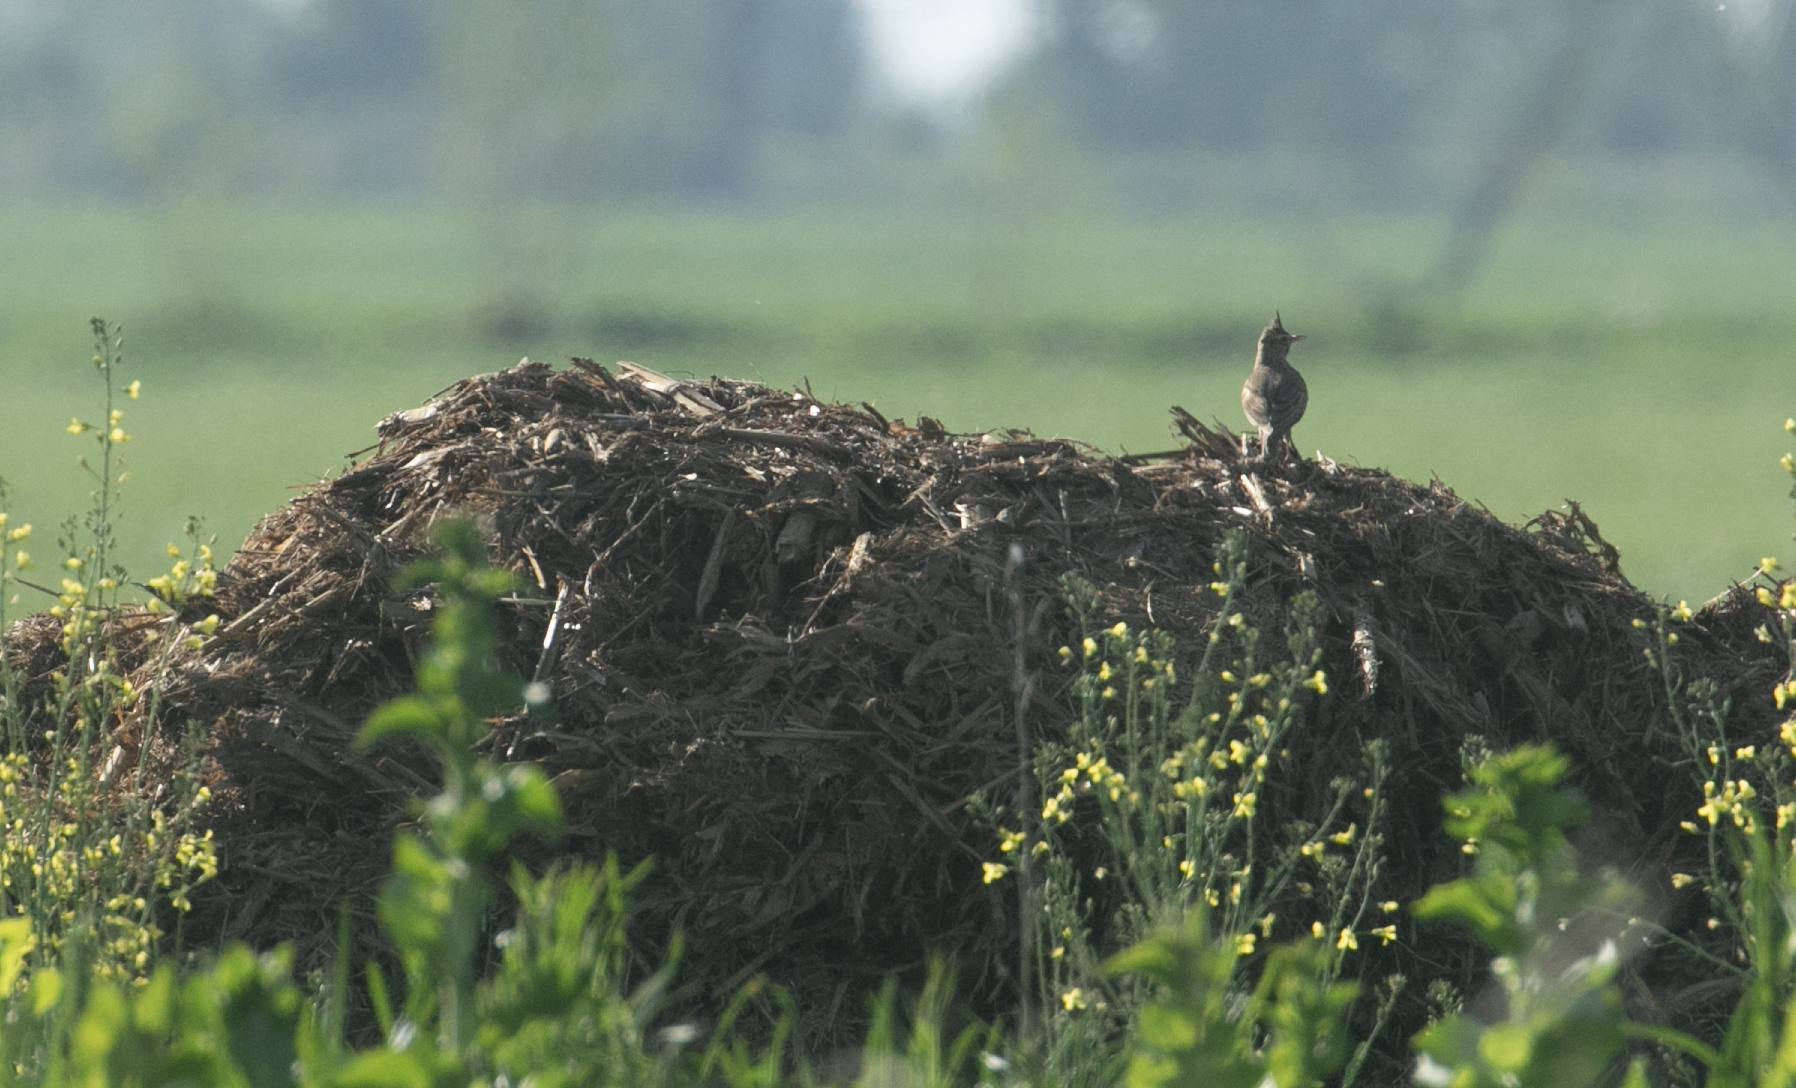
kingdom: Animalia
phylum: Chordata
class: Aves
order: Passeriformes
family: Alaudidae
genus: Galerida
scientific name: Galerida cristata
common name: Crested lark
